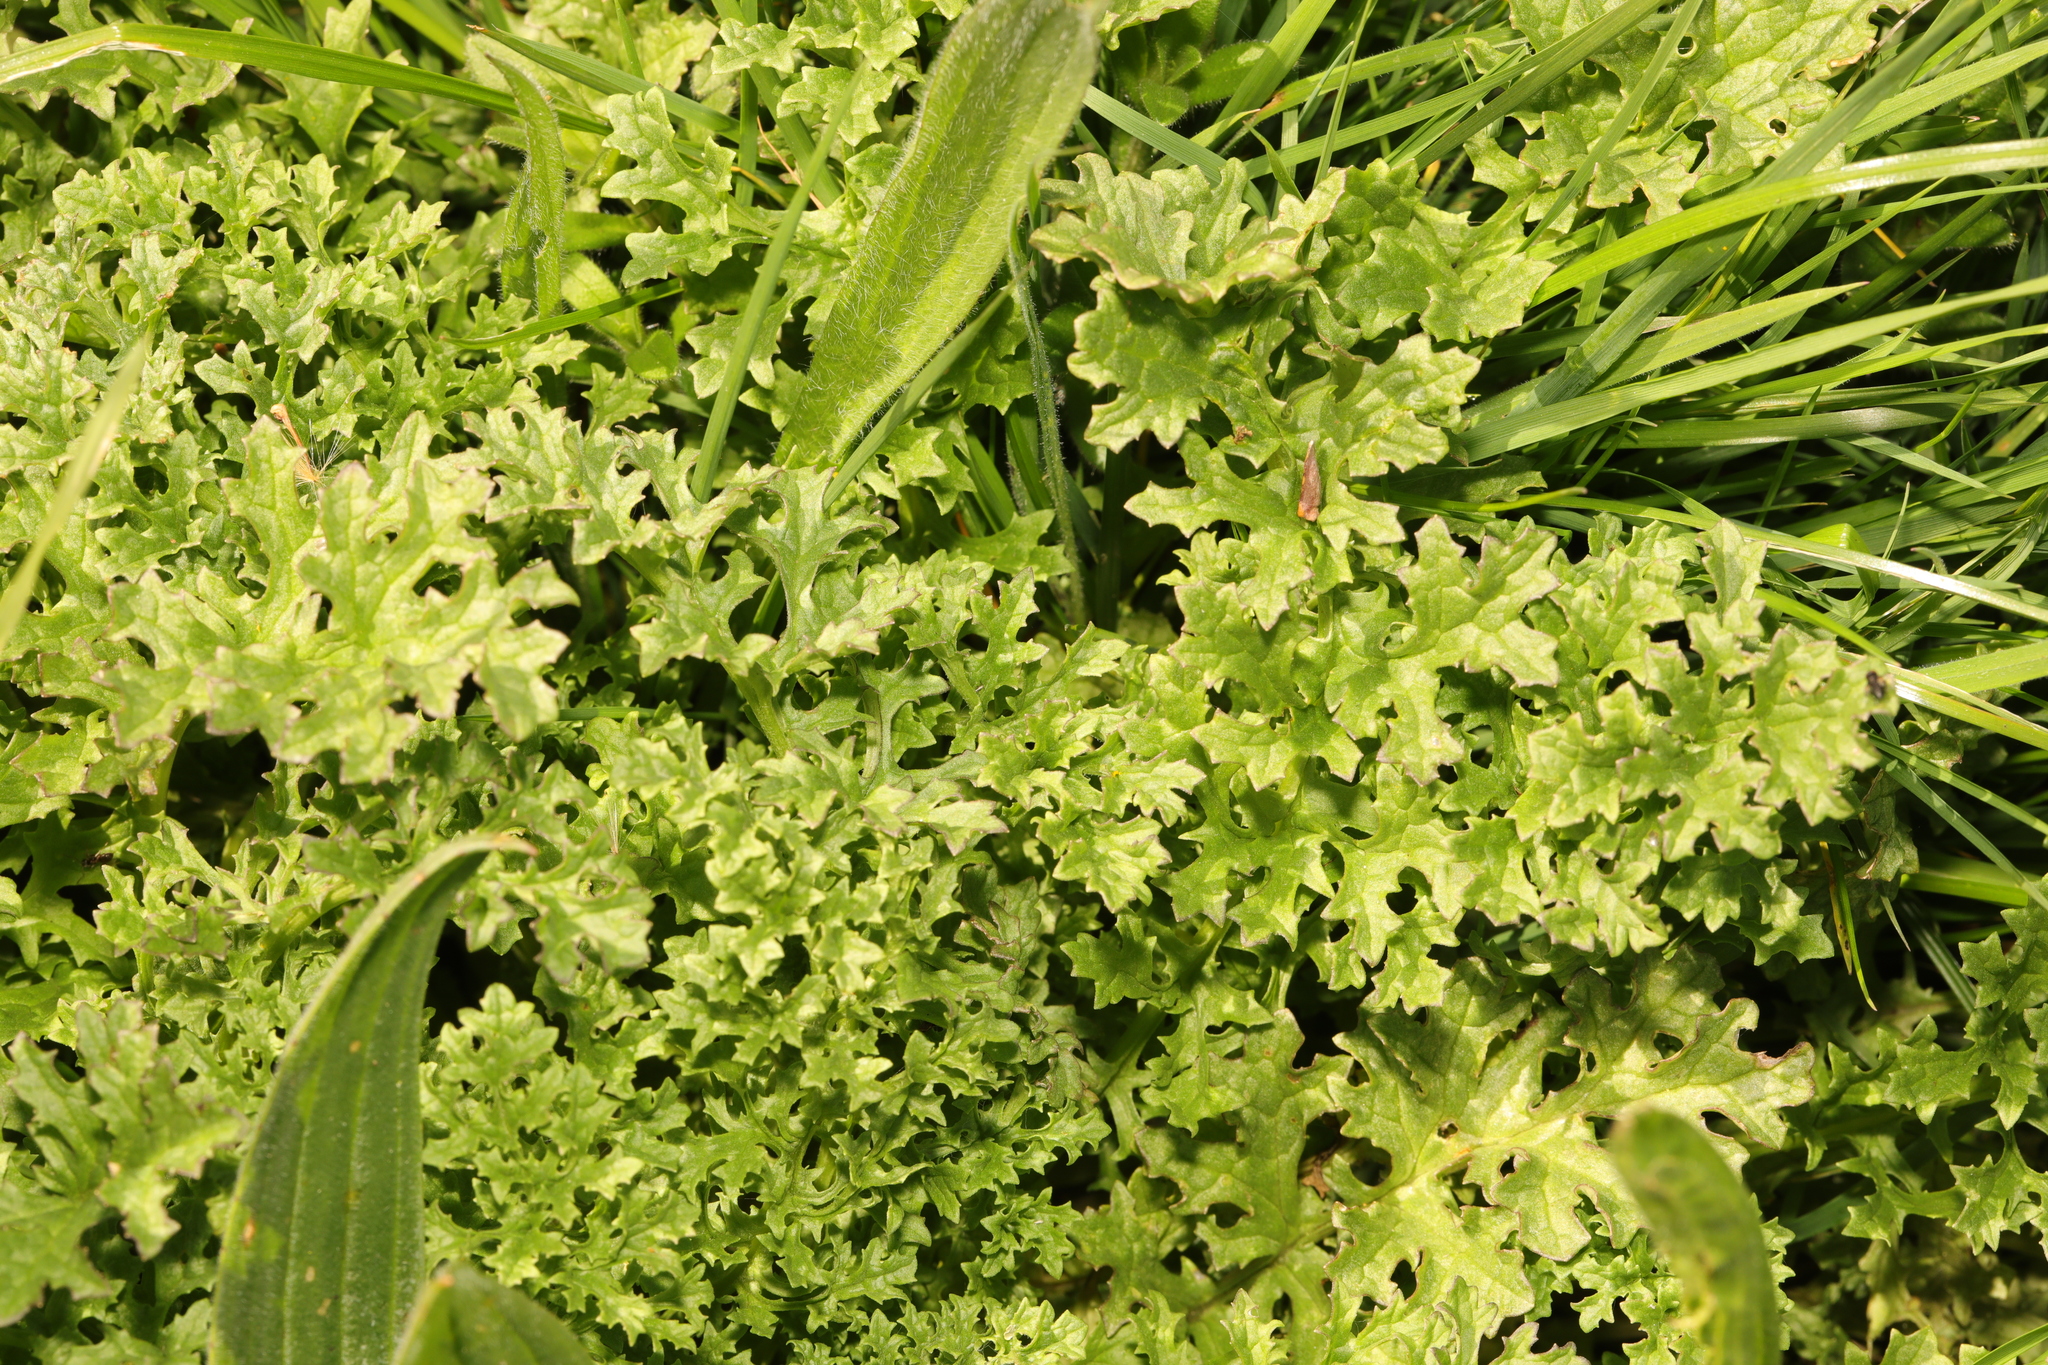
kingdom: Plantae
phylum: Tracheophyta
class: Magnoliopsida
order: Asterales
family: Asteraceae
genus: Jacobaea
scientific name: Jacobaea vulgaris
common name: Stinking willie
